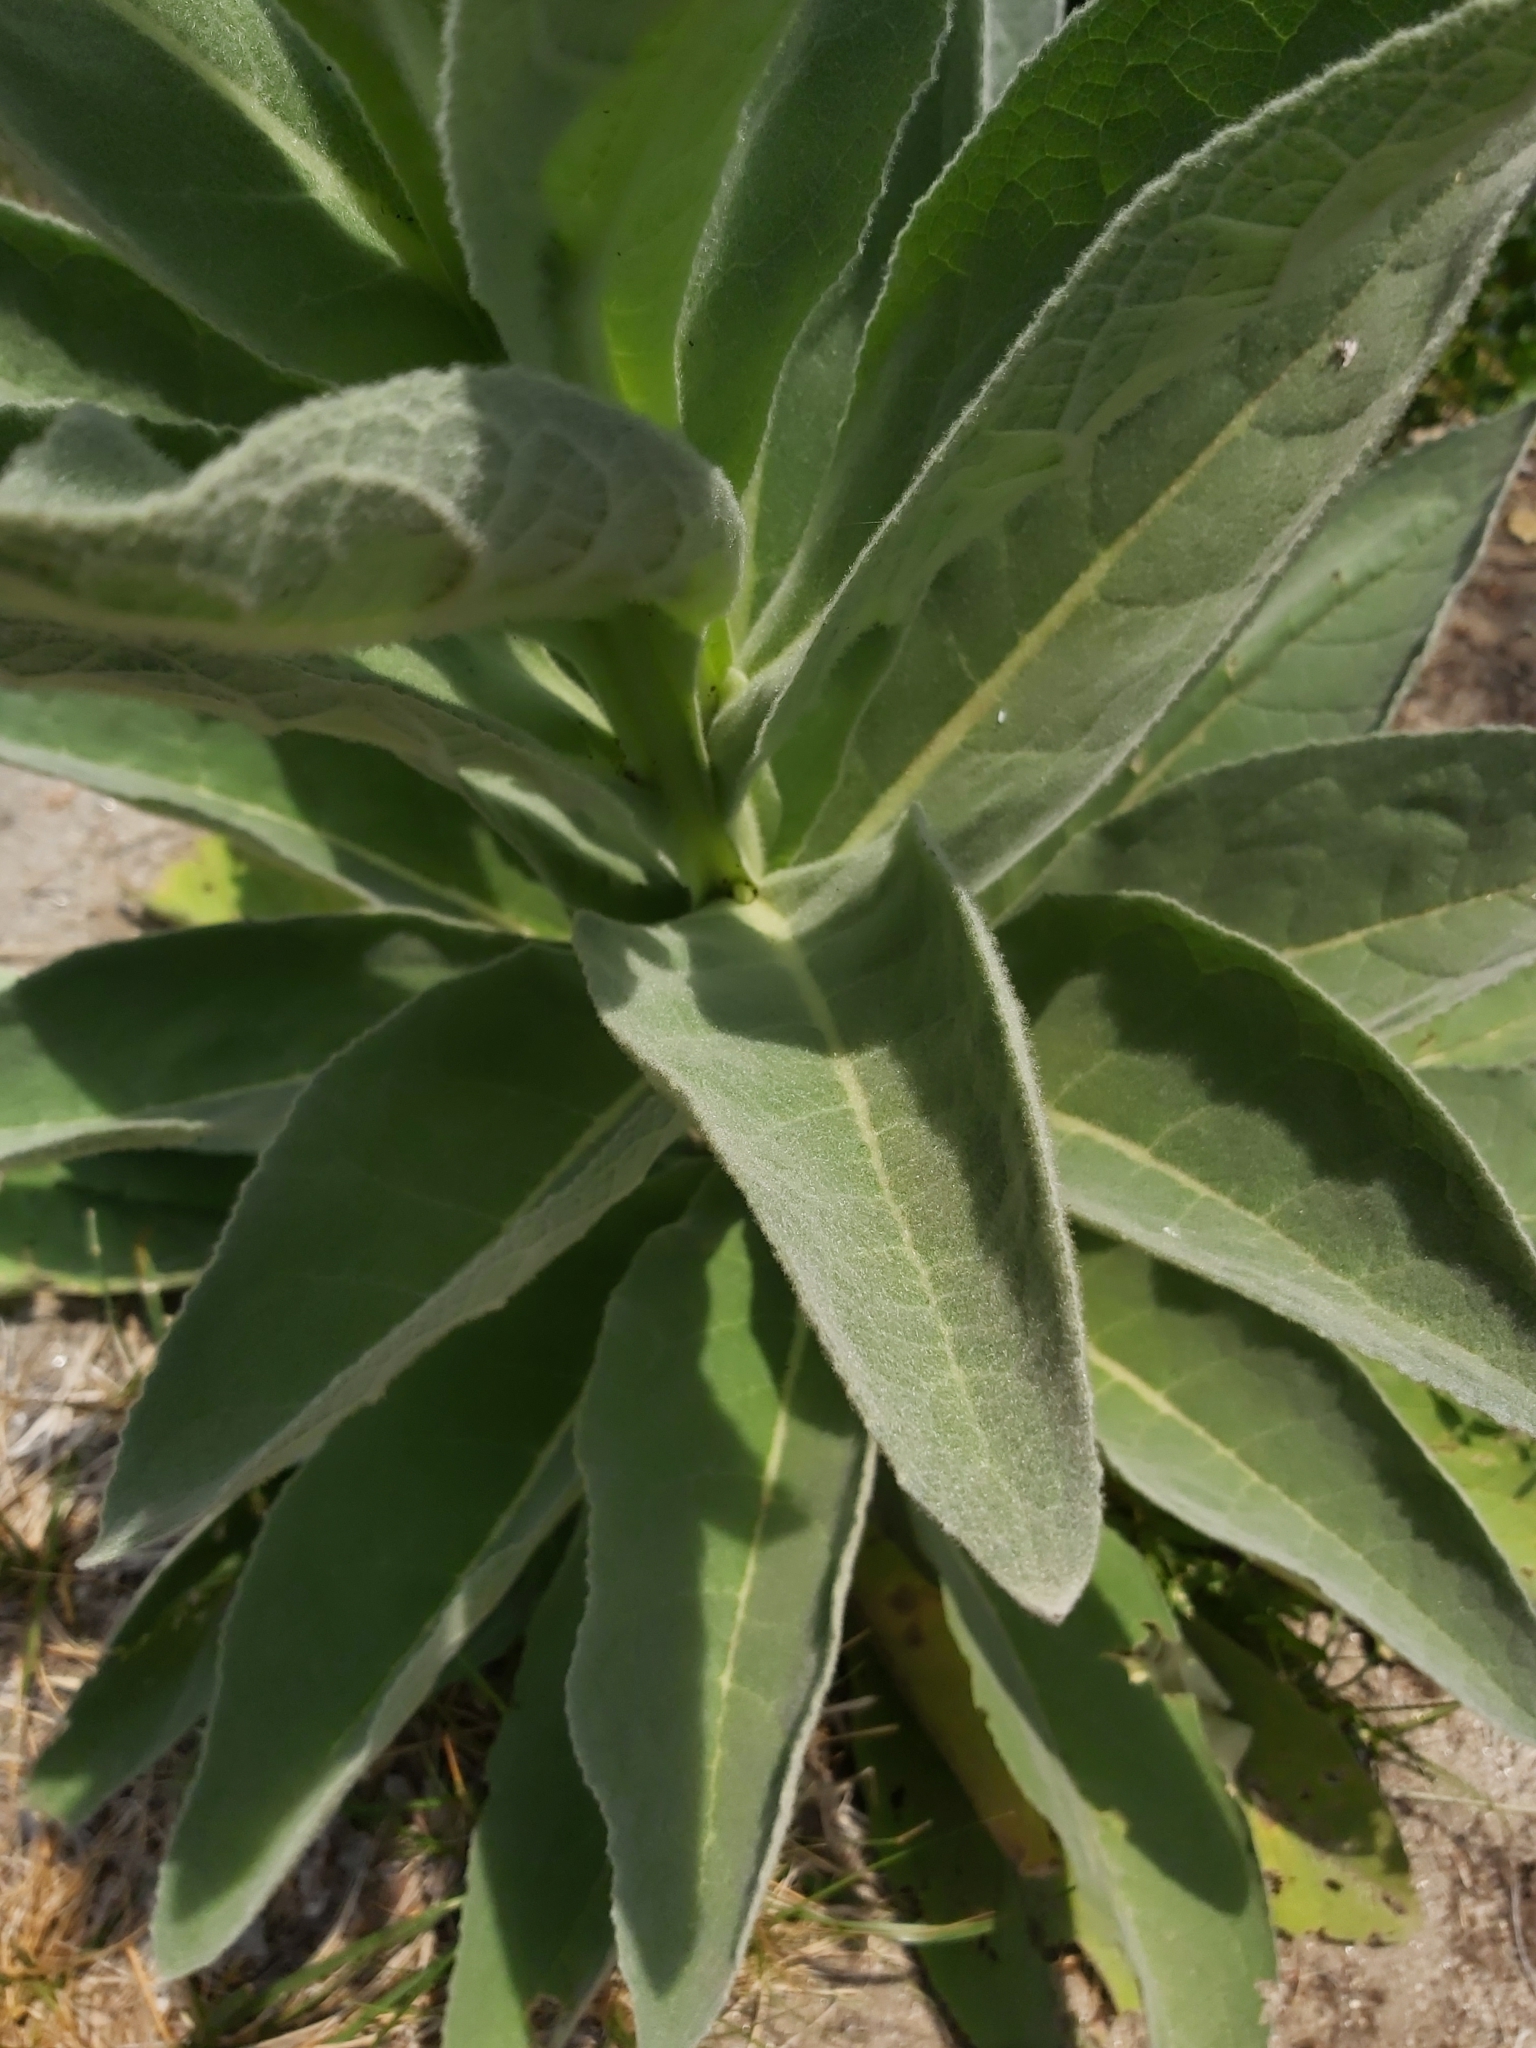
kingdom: Plantae
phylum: Tracheophyta
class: Magnoliopsida
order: Lamiales
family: Scrophulariaceae
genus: Verbascum
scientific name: Verbascum thapsus
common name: Common mullein
